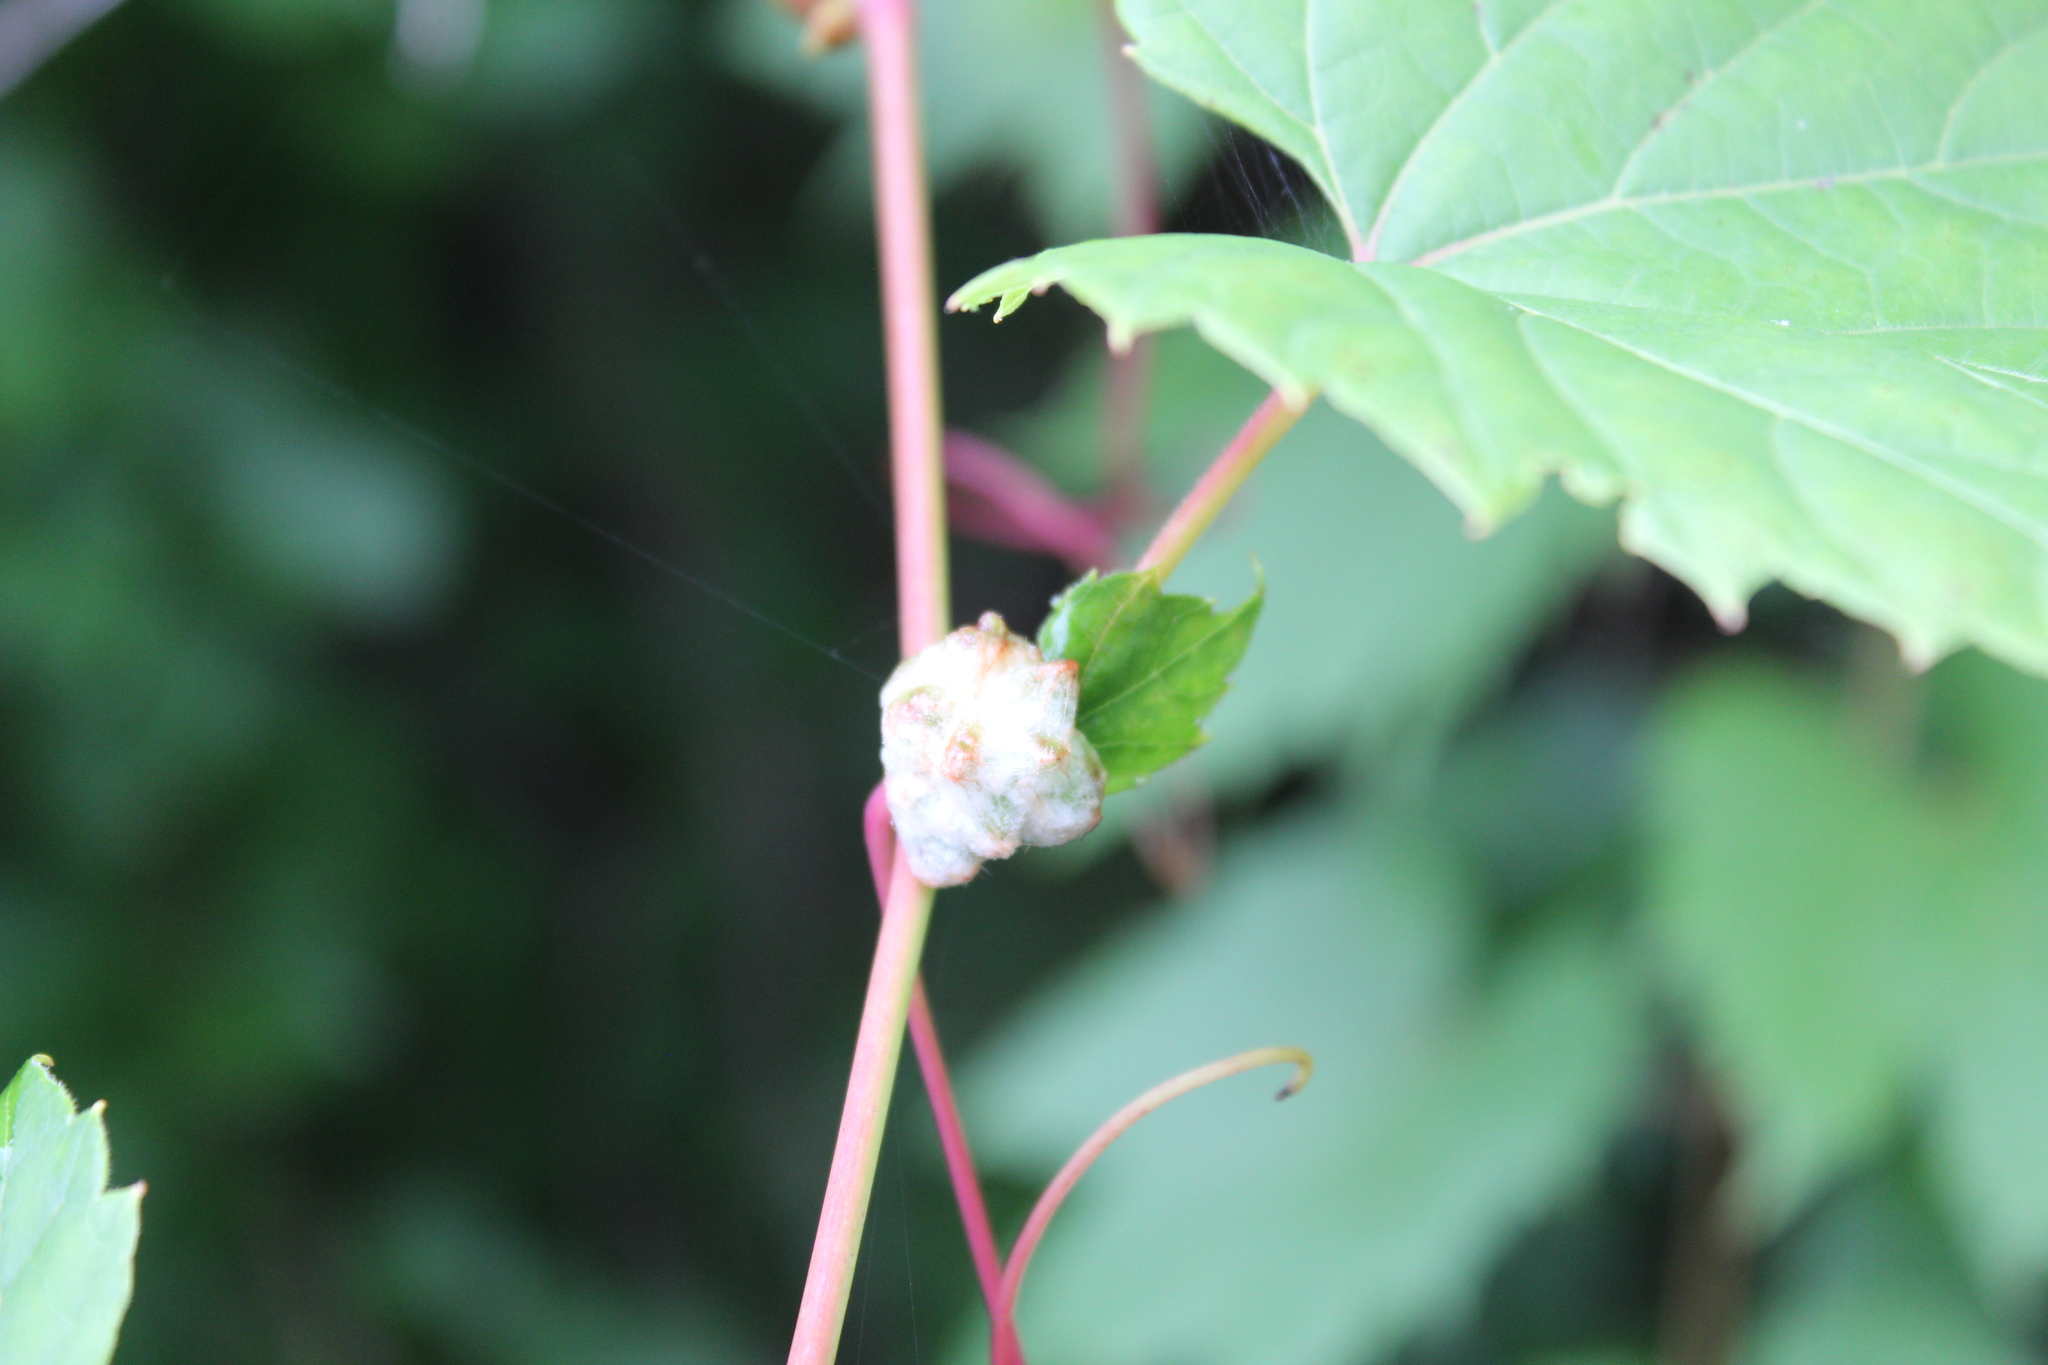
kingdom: Animalia
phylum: Arthropoda
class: Insecta
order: Diptera
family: Cecidomyiidae
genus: Ampelomyia
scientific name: Ampelomyia vitiscoryloides
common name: Grape filbert gall
